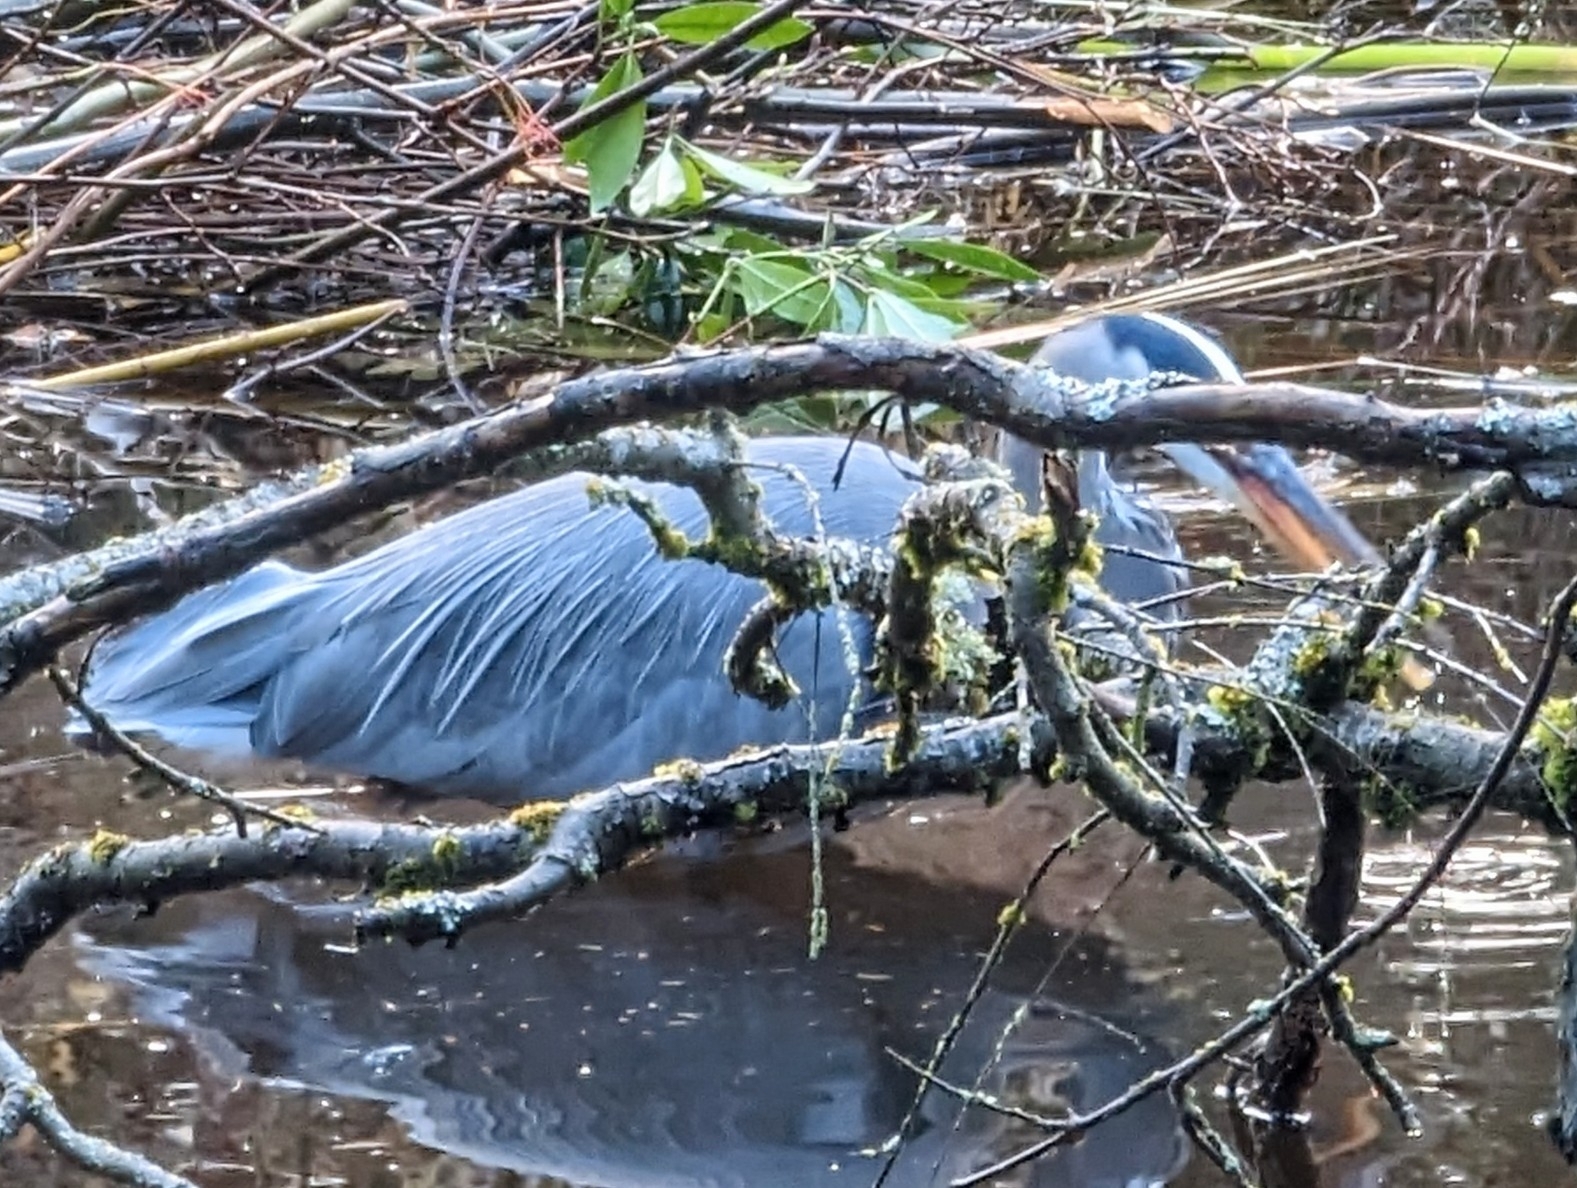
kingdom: Animalia
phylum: Chordata
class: Aves
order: Pelecaniformes
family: Ardeidae
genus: Ardea
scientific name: Ardea herodias
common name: Great blue heron
